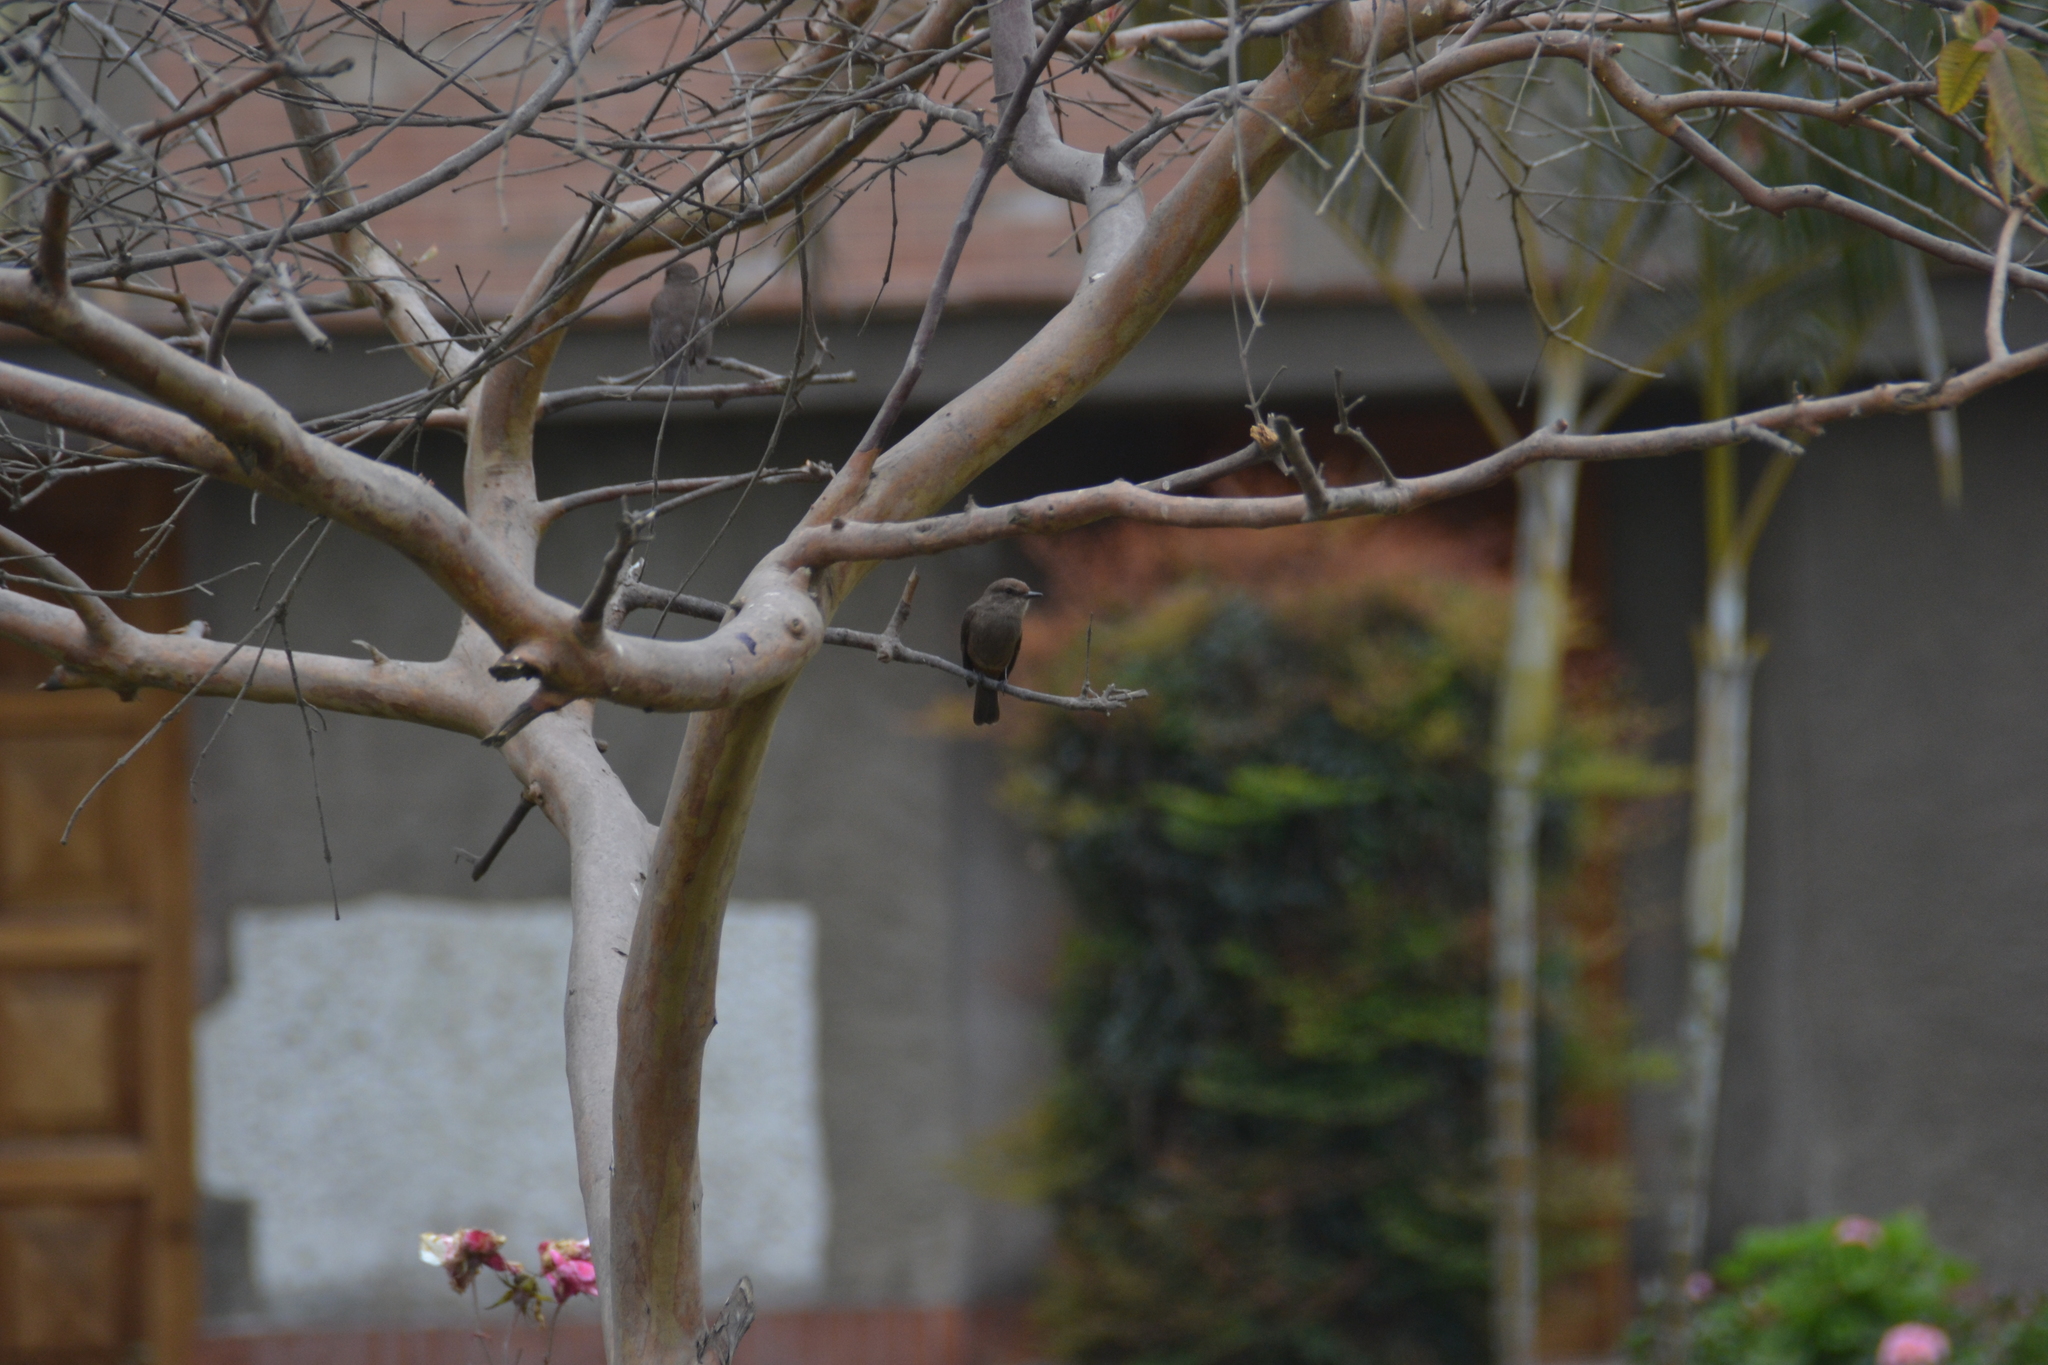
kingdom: Animalia
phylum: Chordata
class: Aves
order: Passeriformes
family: Tyrannidae
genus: Pyrocephalus
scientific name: Pyrocephalus rubinus
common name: Vermilion flycatcher
